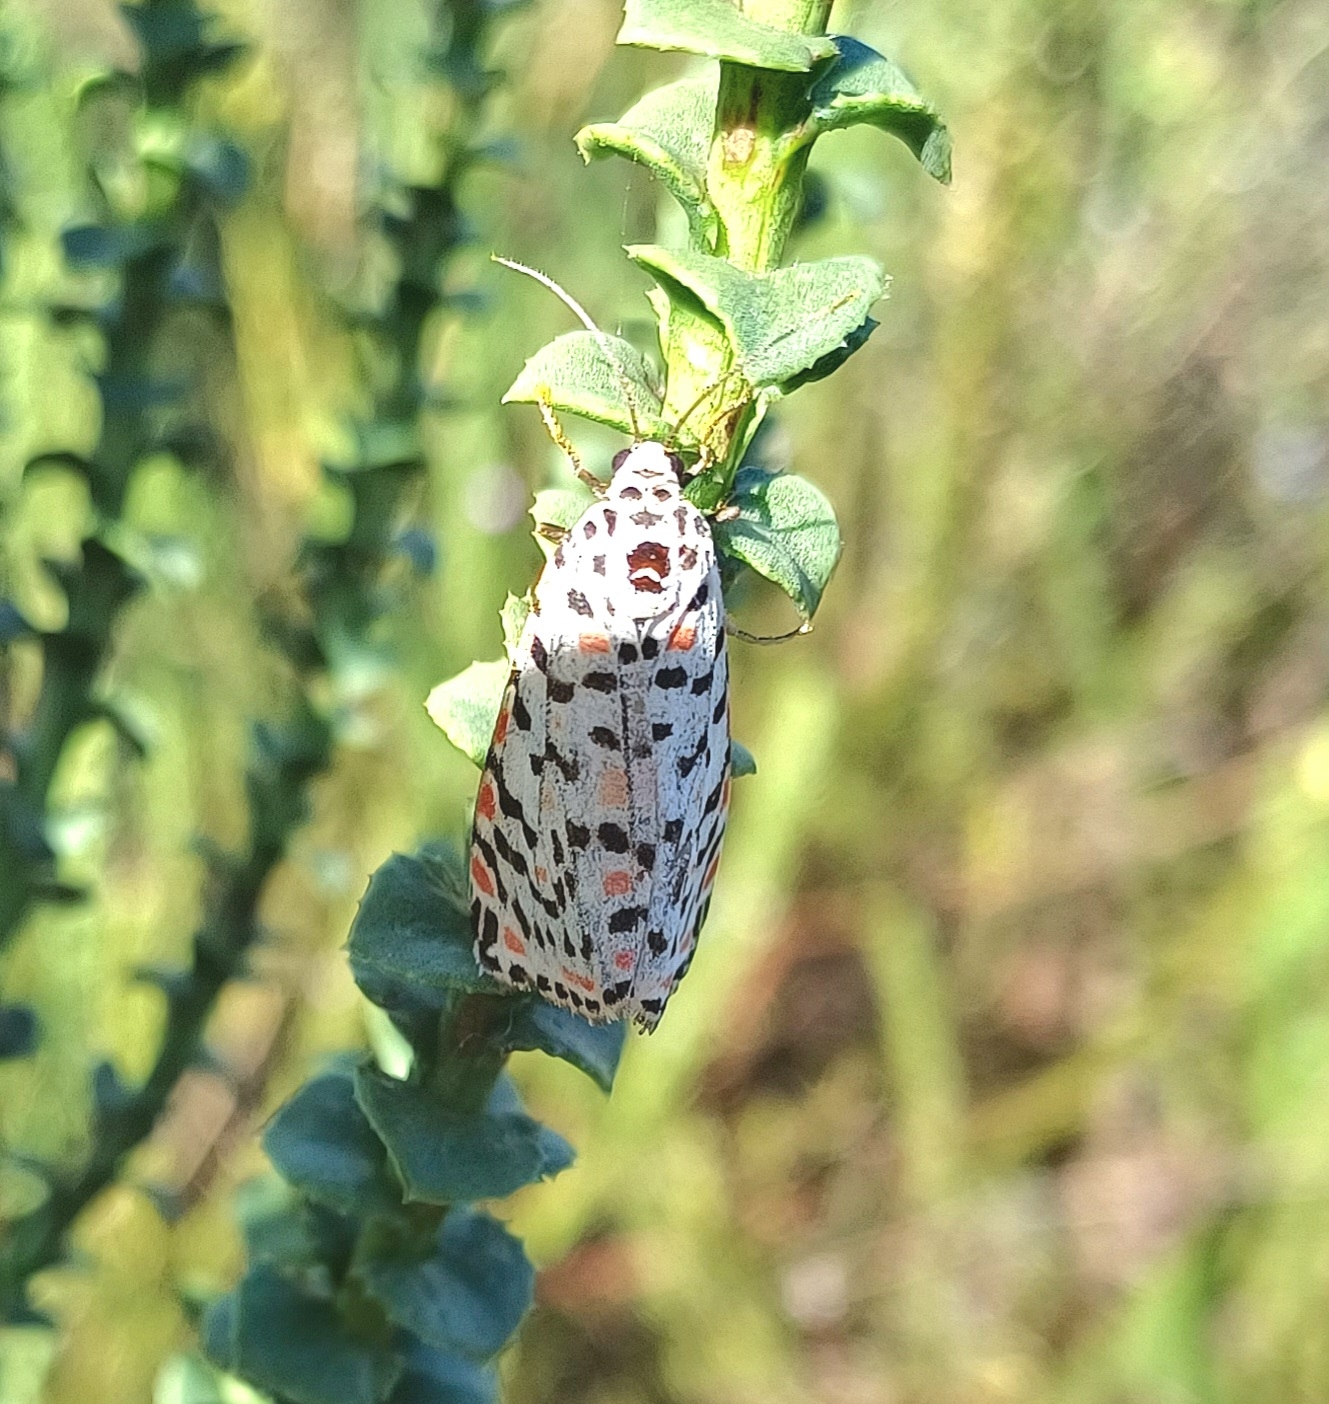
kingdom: Animalia
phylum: Arthropoda
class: Insecta
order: Lepidoptera
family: Erebidae
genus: Utetheisa
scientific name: Utetheisa pulchella
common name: Crimson speckled
